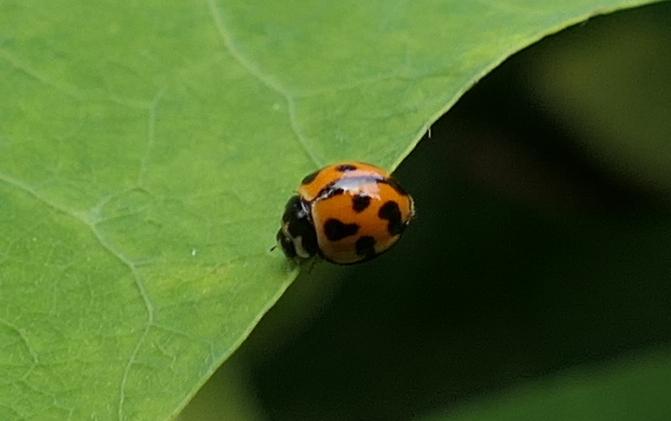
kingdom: Animalia
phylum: Arthropoda
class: Insecta
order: Coleoptera
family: Coccinellidae
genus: Coelophora
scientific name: Coelophora inaequalis
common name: Common australian lady beetle
